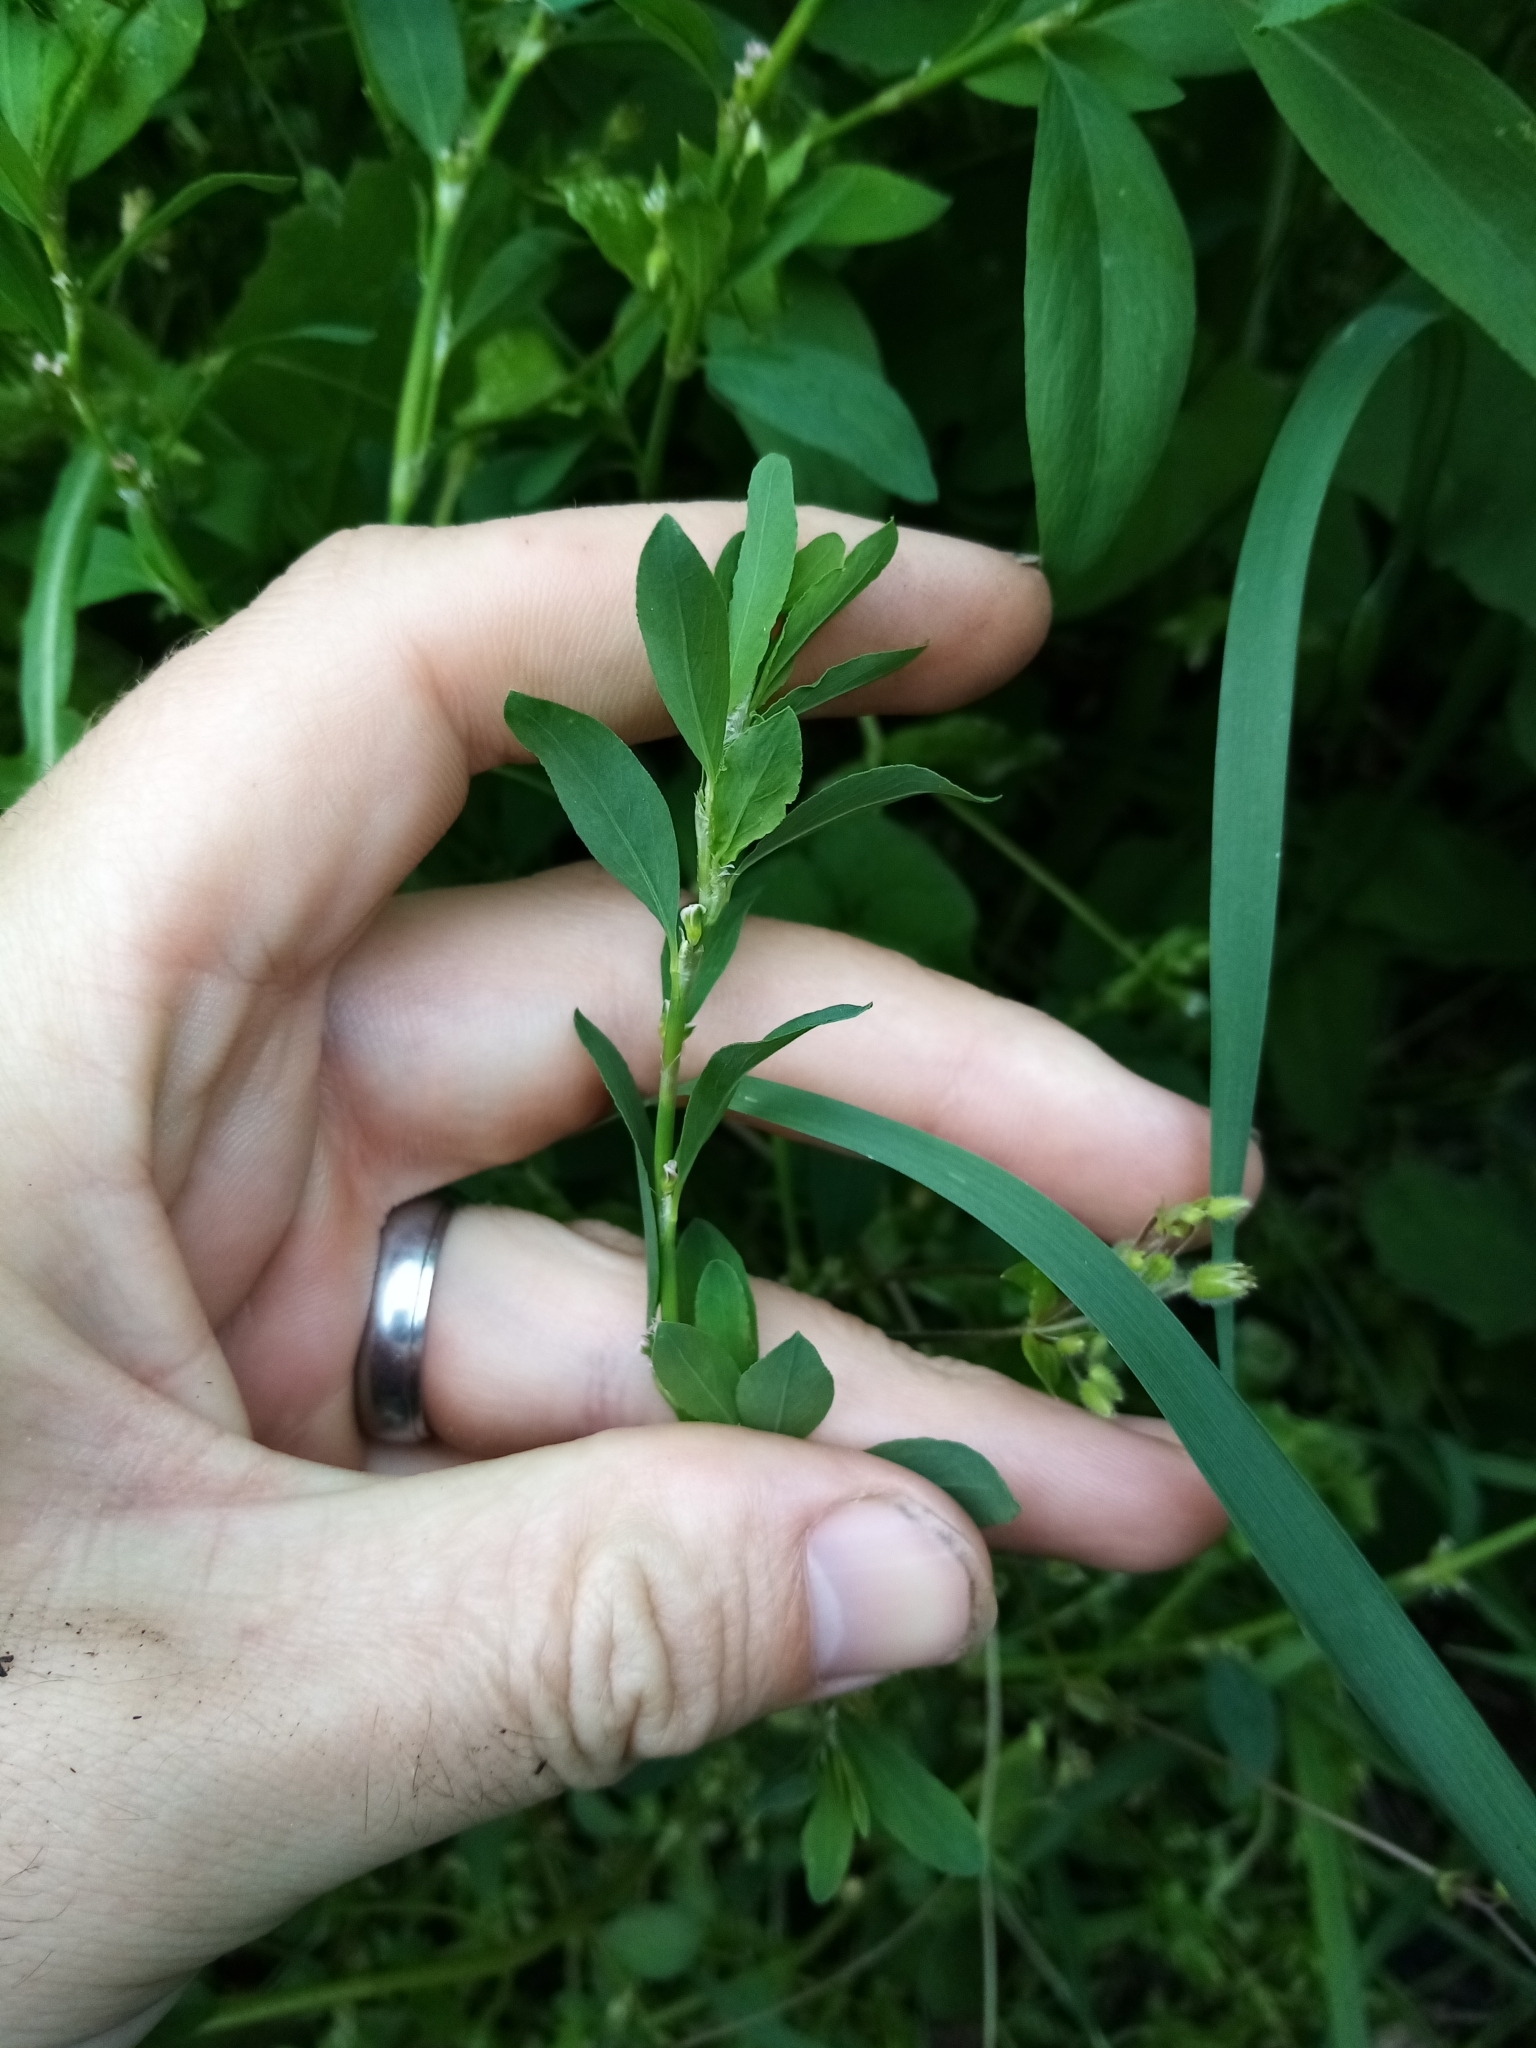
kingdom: Plantae
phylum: Tracheophyta
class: Magnoliopsida
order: Caryophyllales
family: Polygonaceae
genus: Polygonum
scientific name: Polygonum aviculare
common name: Prostrate knotweed
